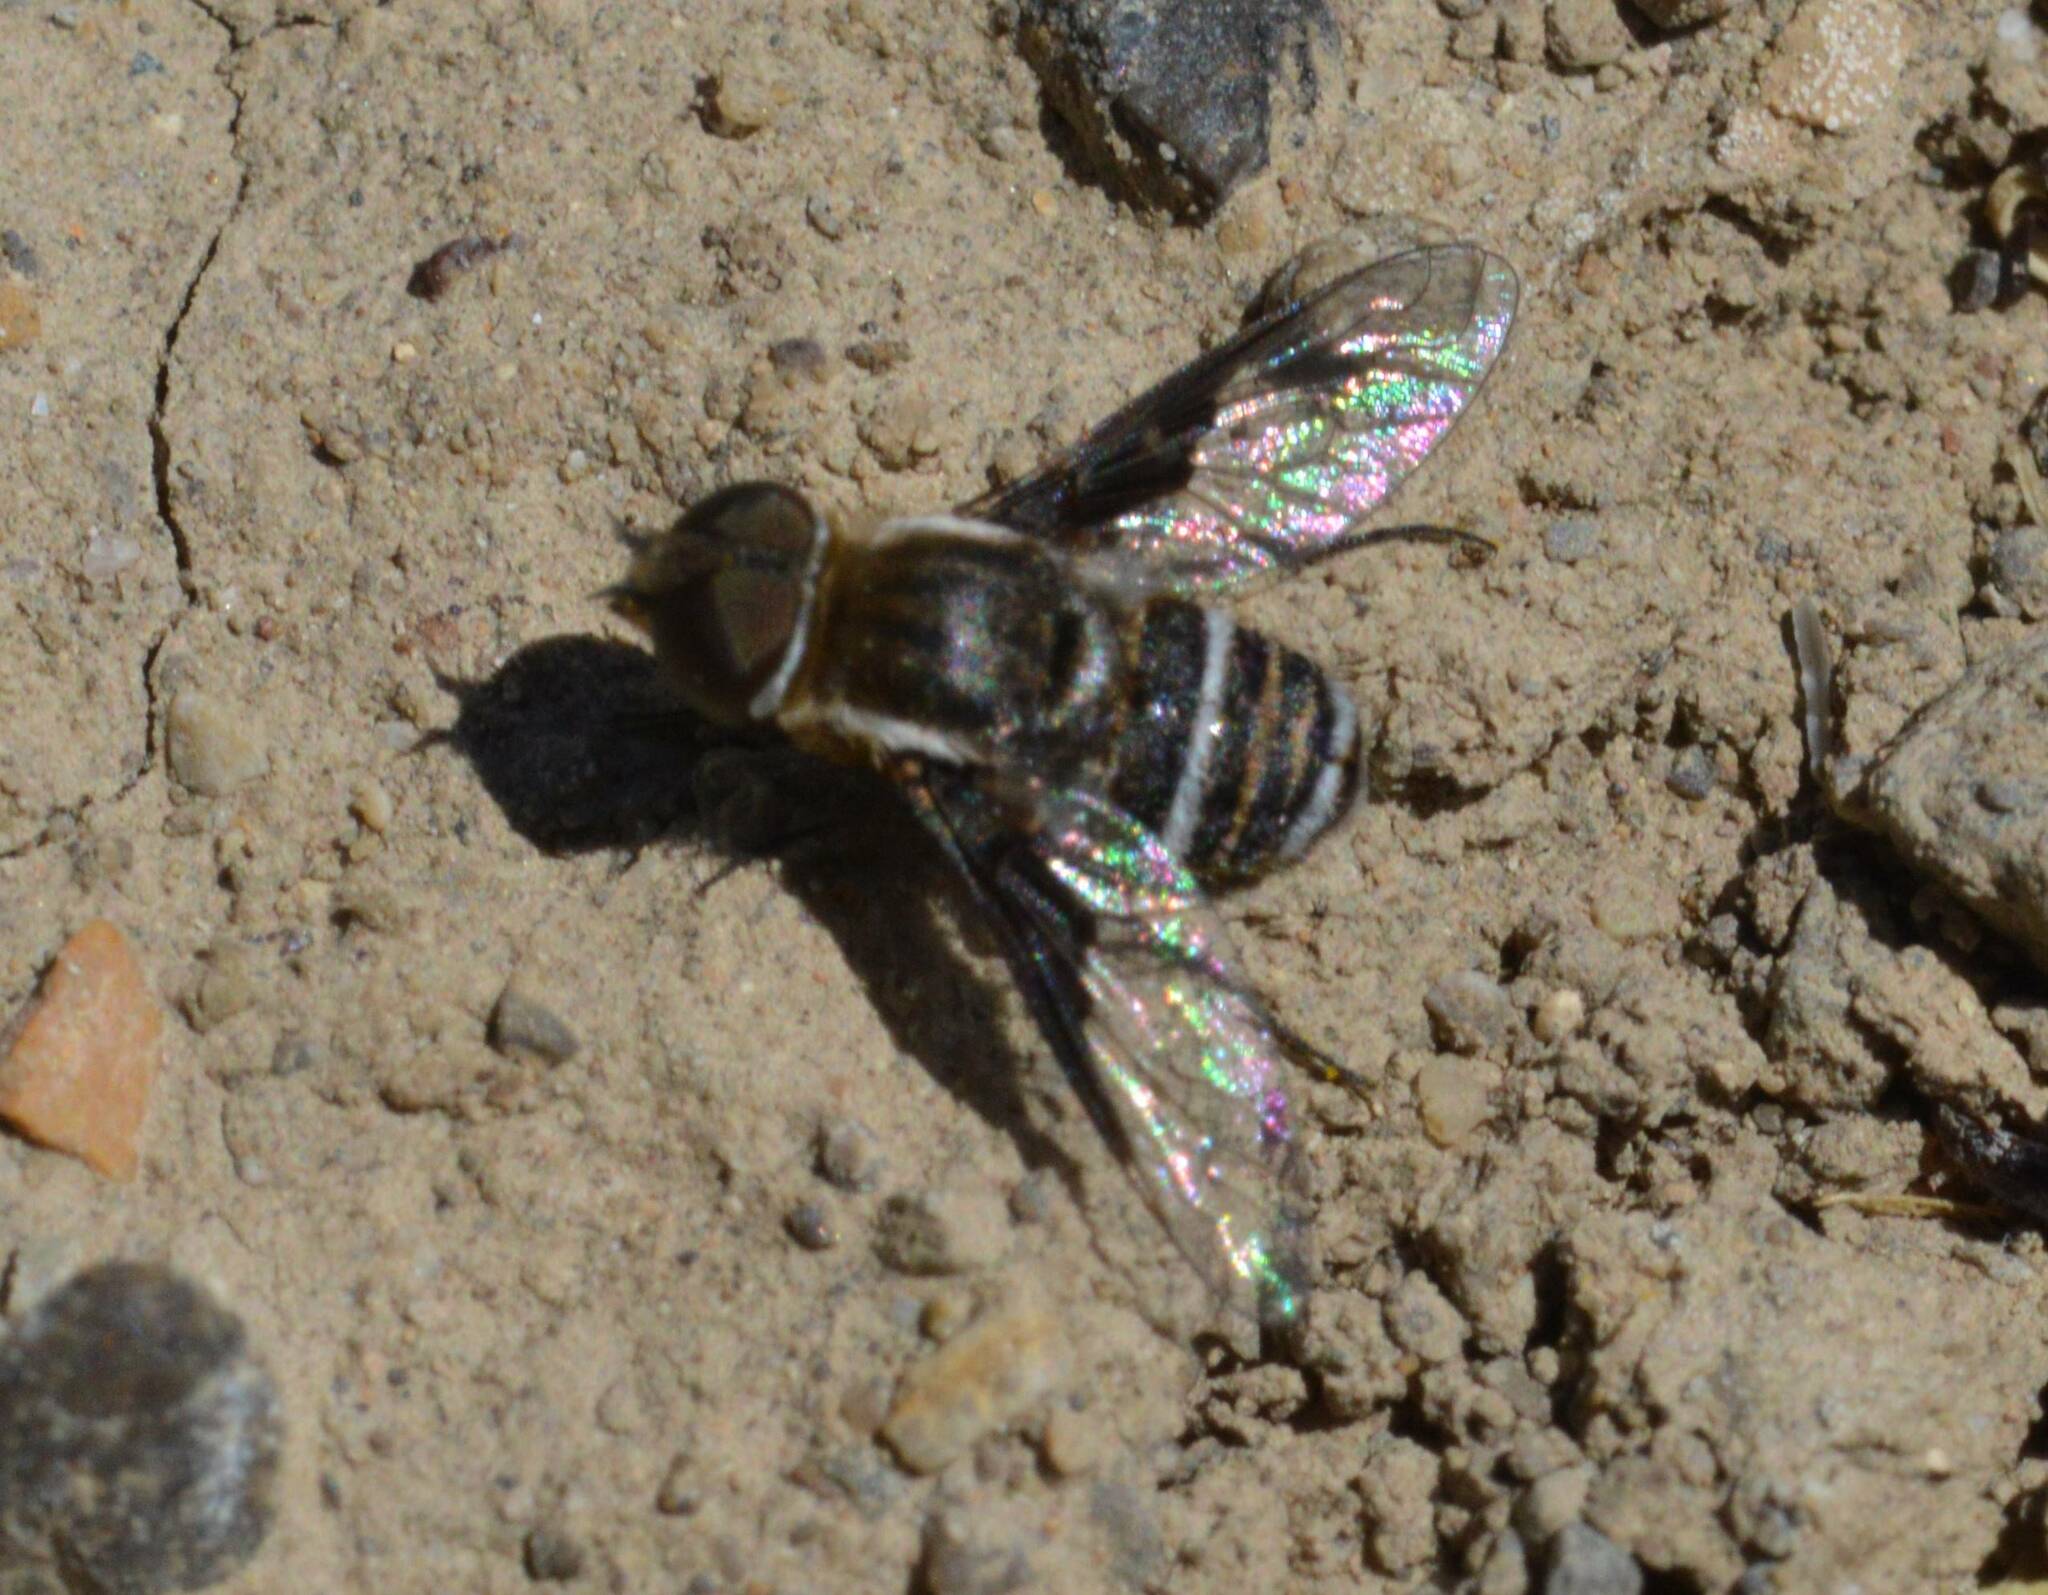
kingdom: Animalia
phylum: Arthropoda
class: Insecta
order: Diptera
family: Bombyliidae
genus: Exhyalanthrax
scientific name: Exhyalanthrax afer
